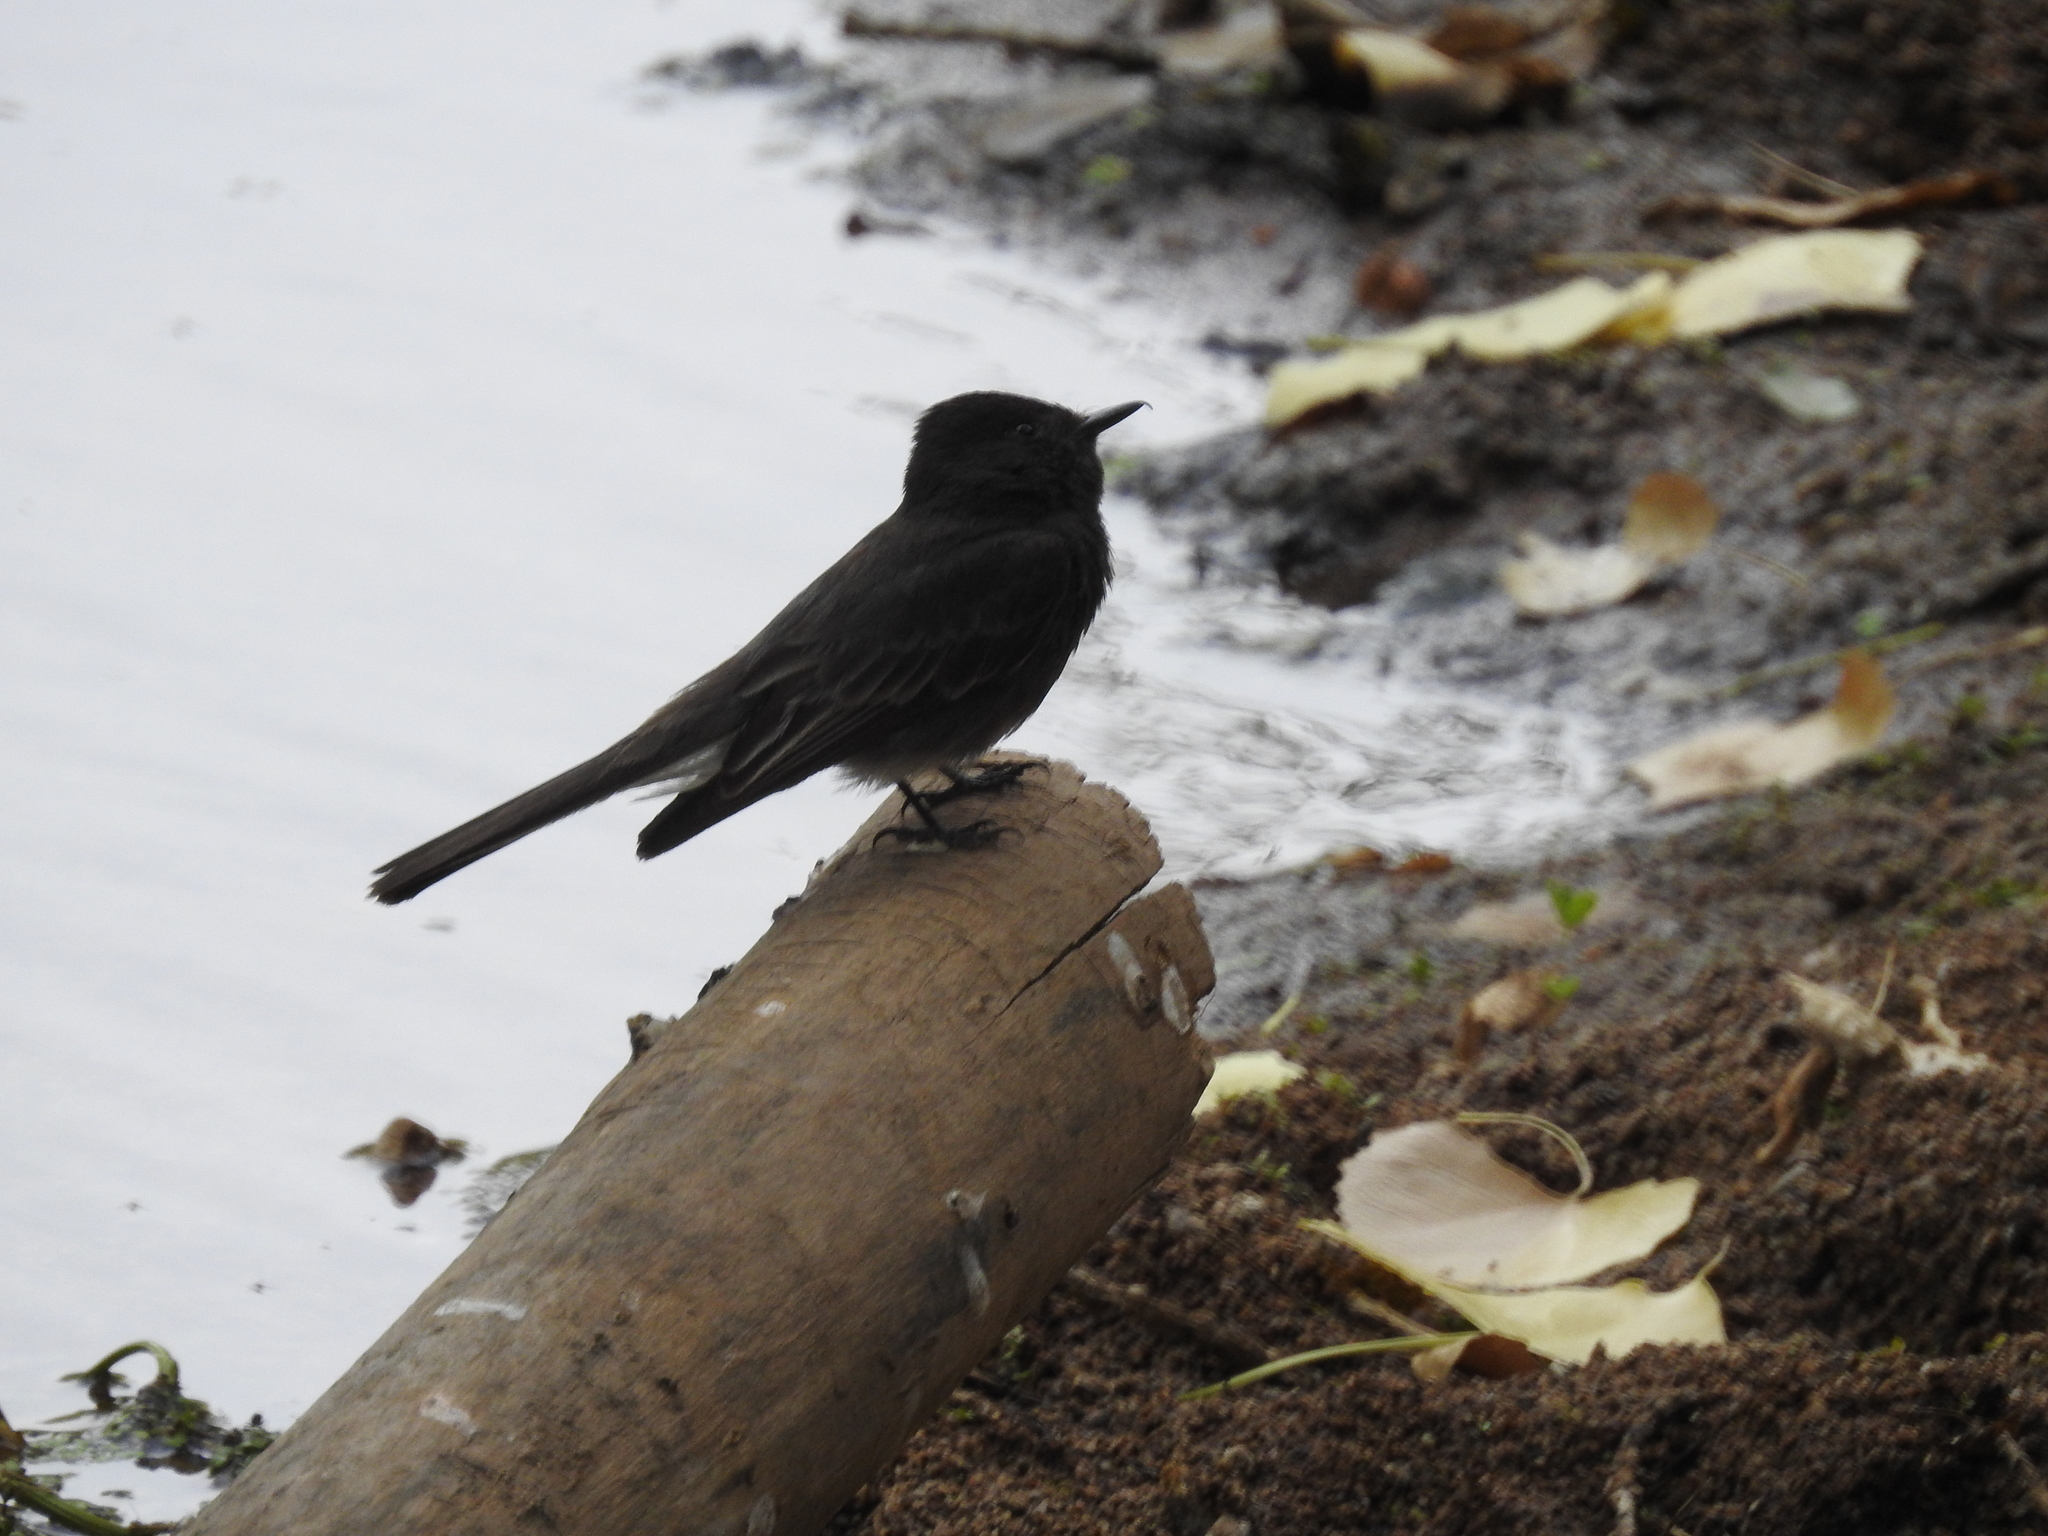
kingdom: Animalia
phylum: Chordata
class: Aves
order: Passeriformes
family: Tyrannidae
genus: Sayornis
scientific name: Sayornis nigricans
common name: Black phoebe
